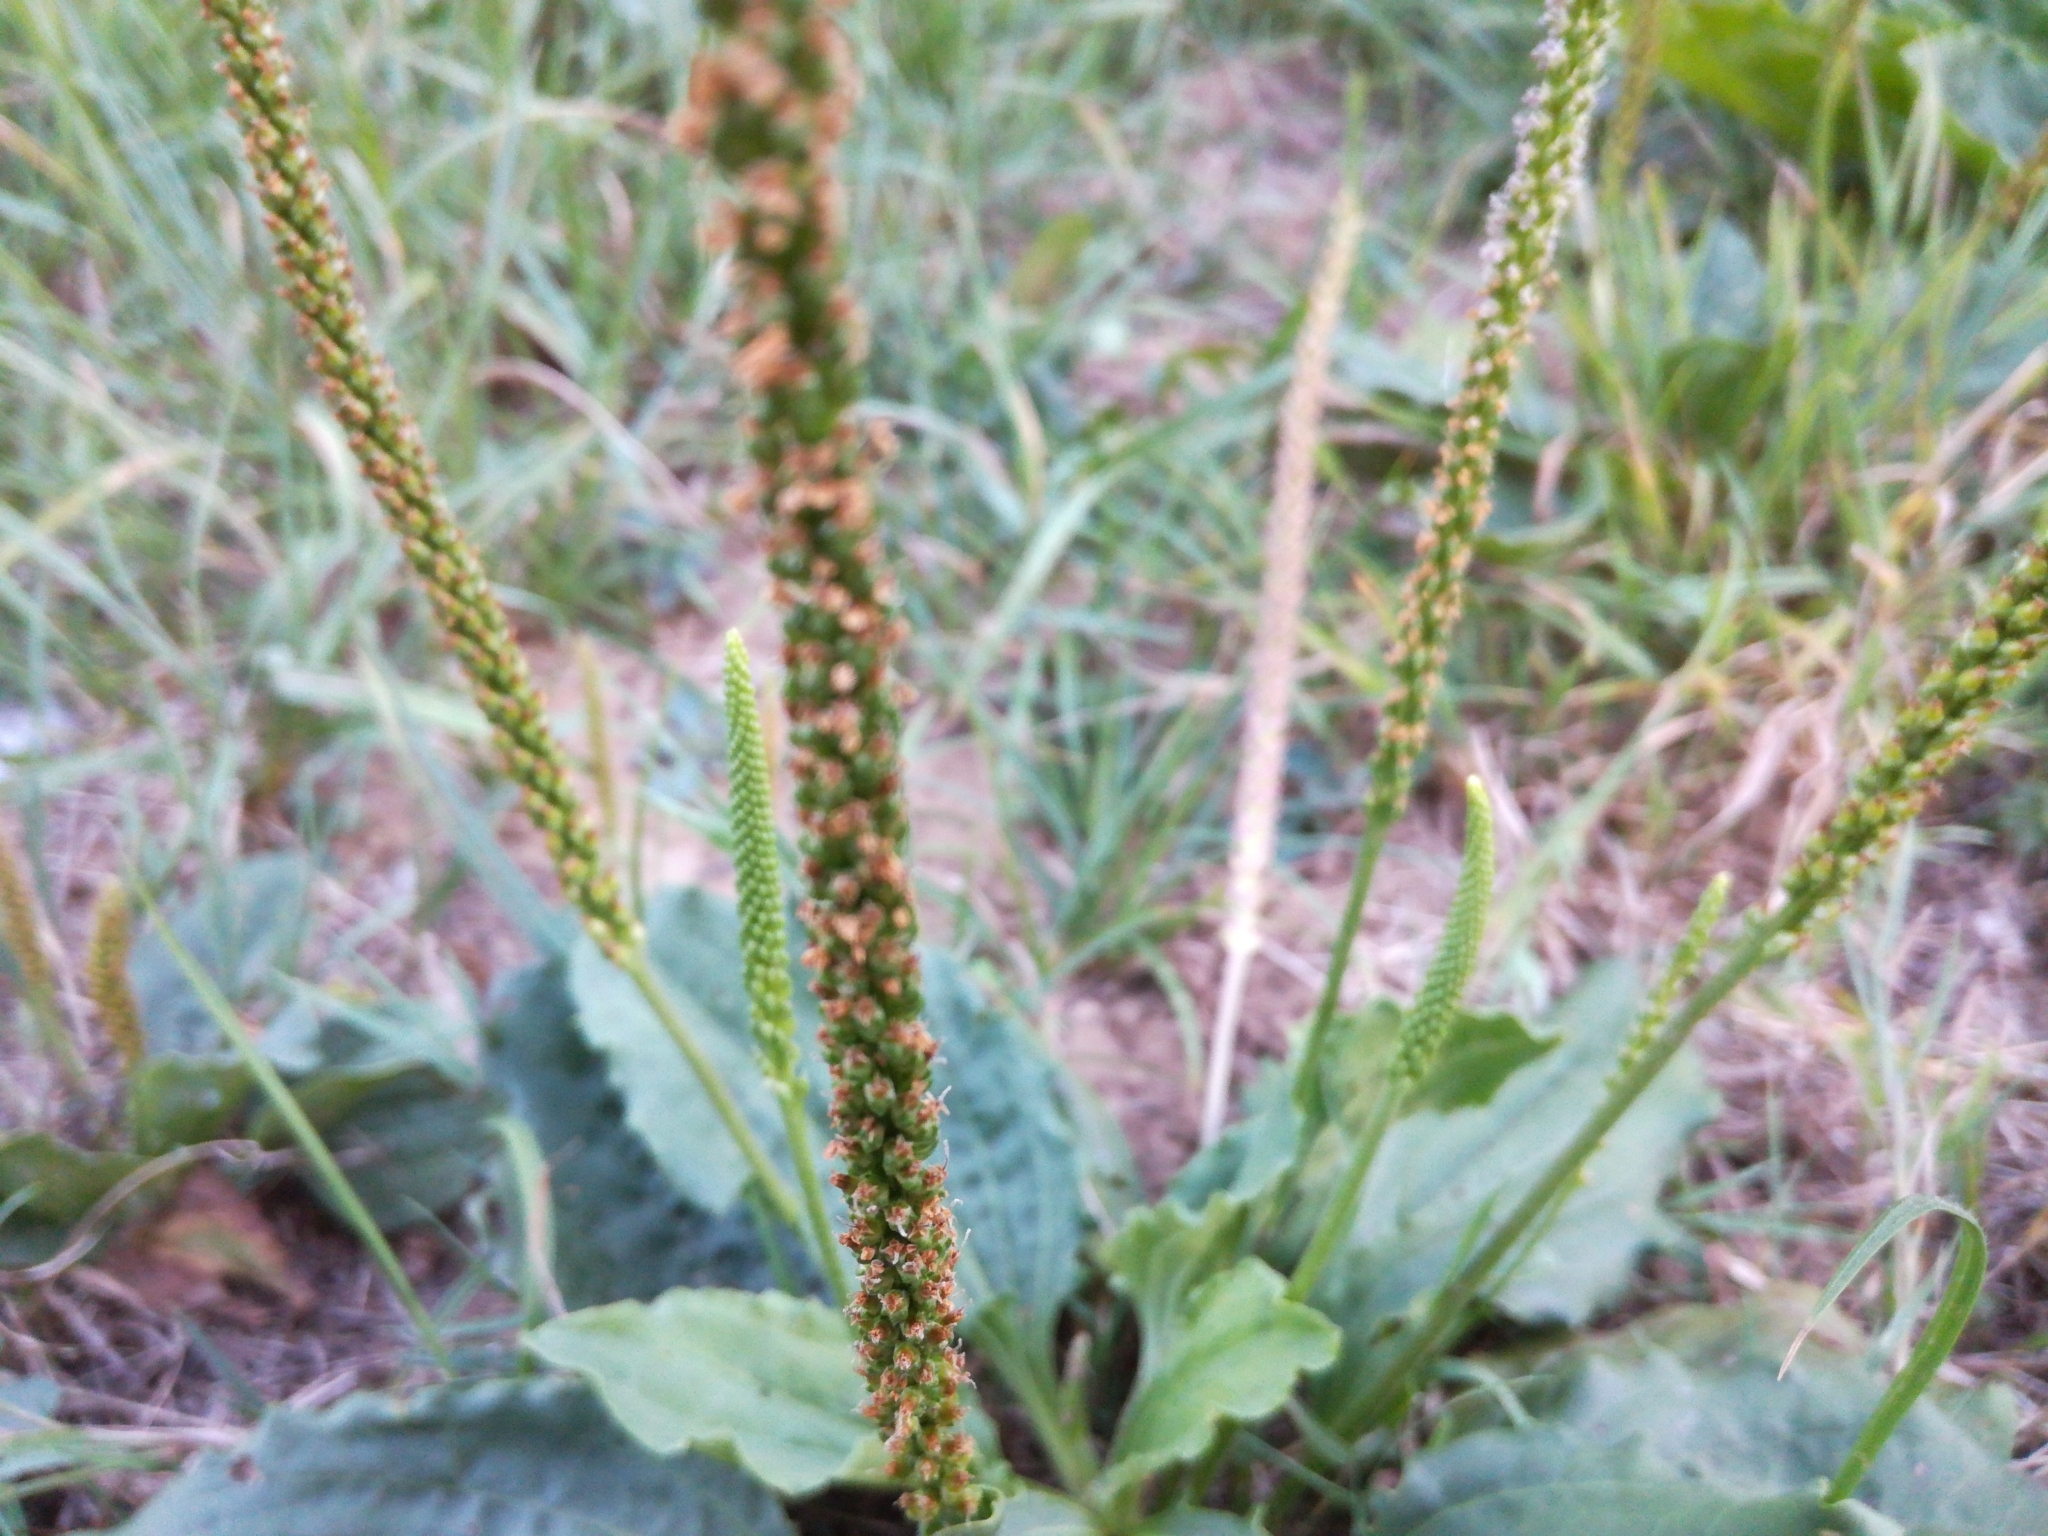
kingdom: Plantae
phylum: Tracheophyta
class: Magnoliopsida
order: Lamiales
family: Plantaginaceae
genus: Plantago
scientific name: Plantago major
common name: Common plantain
